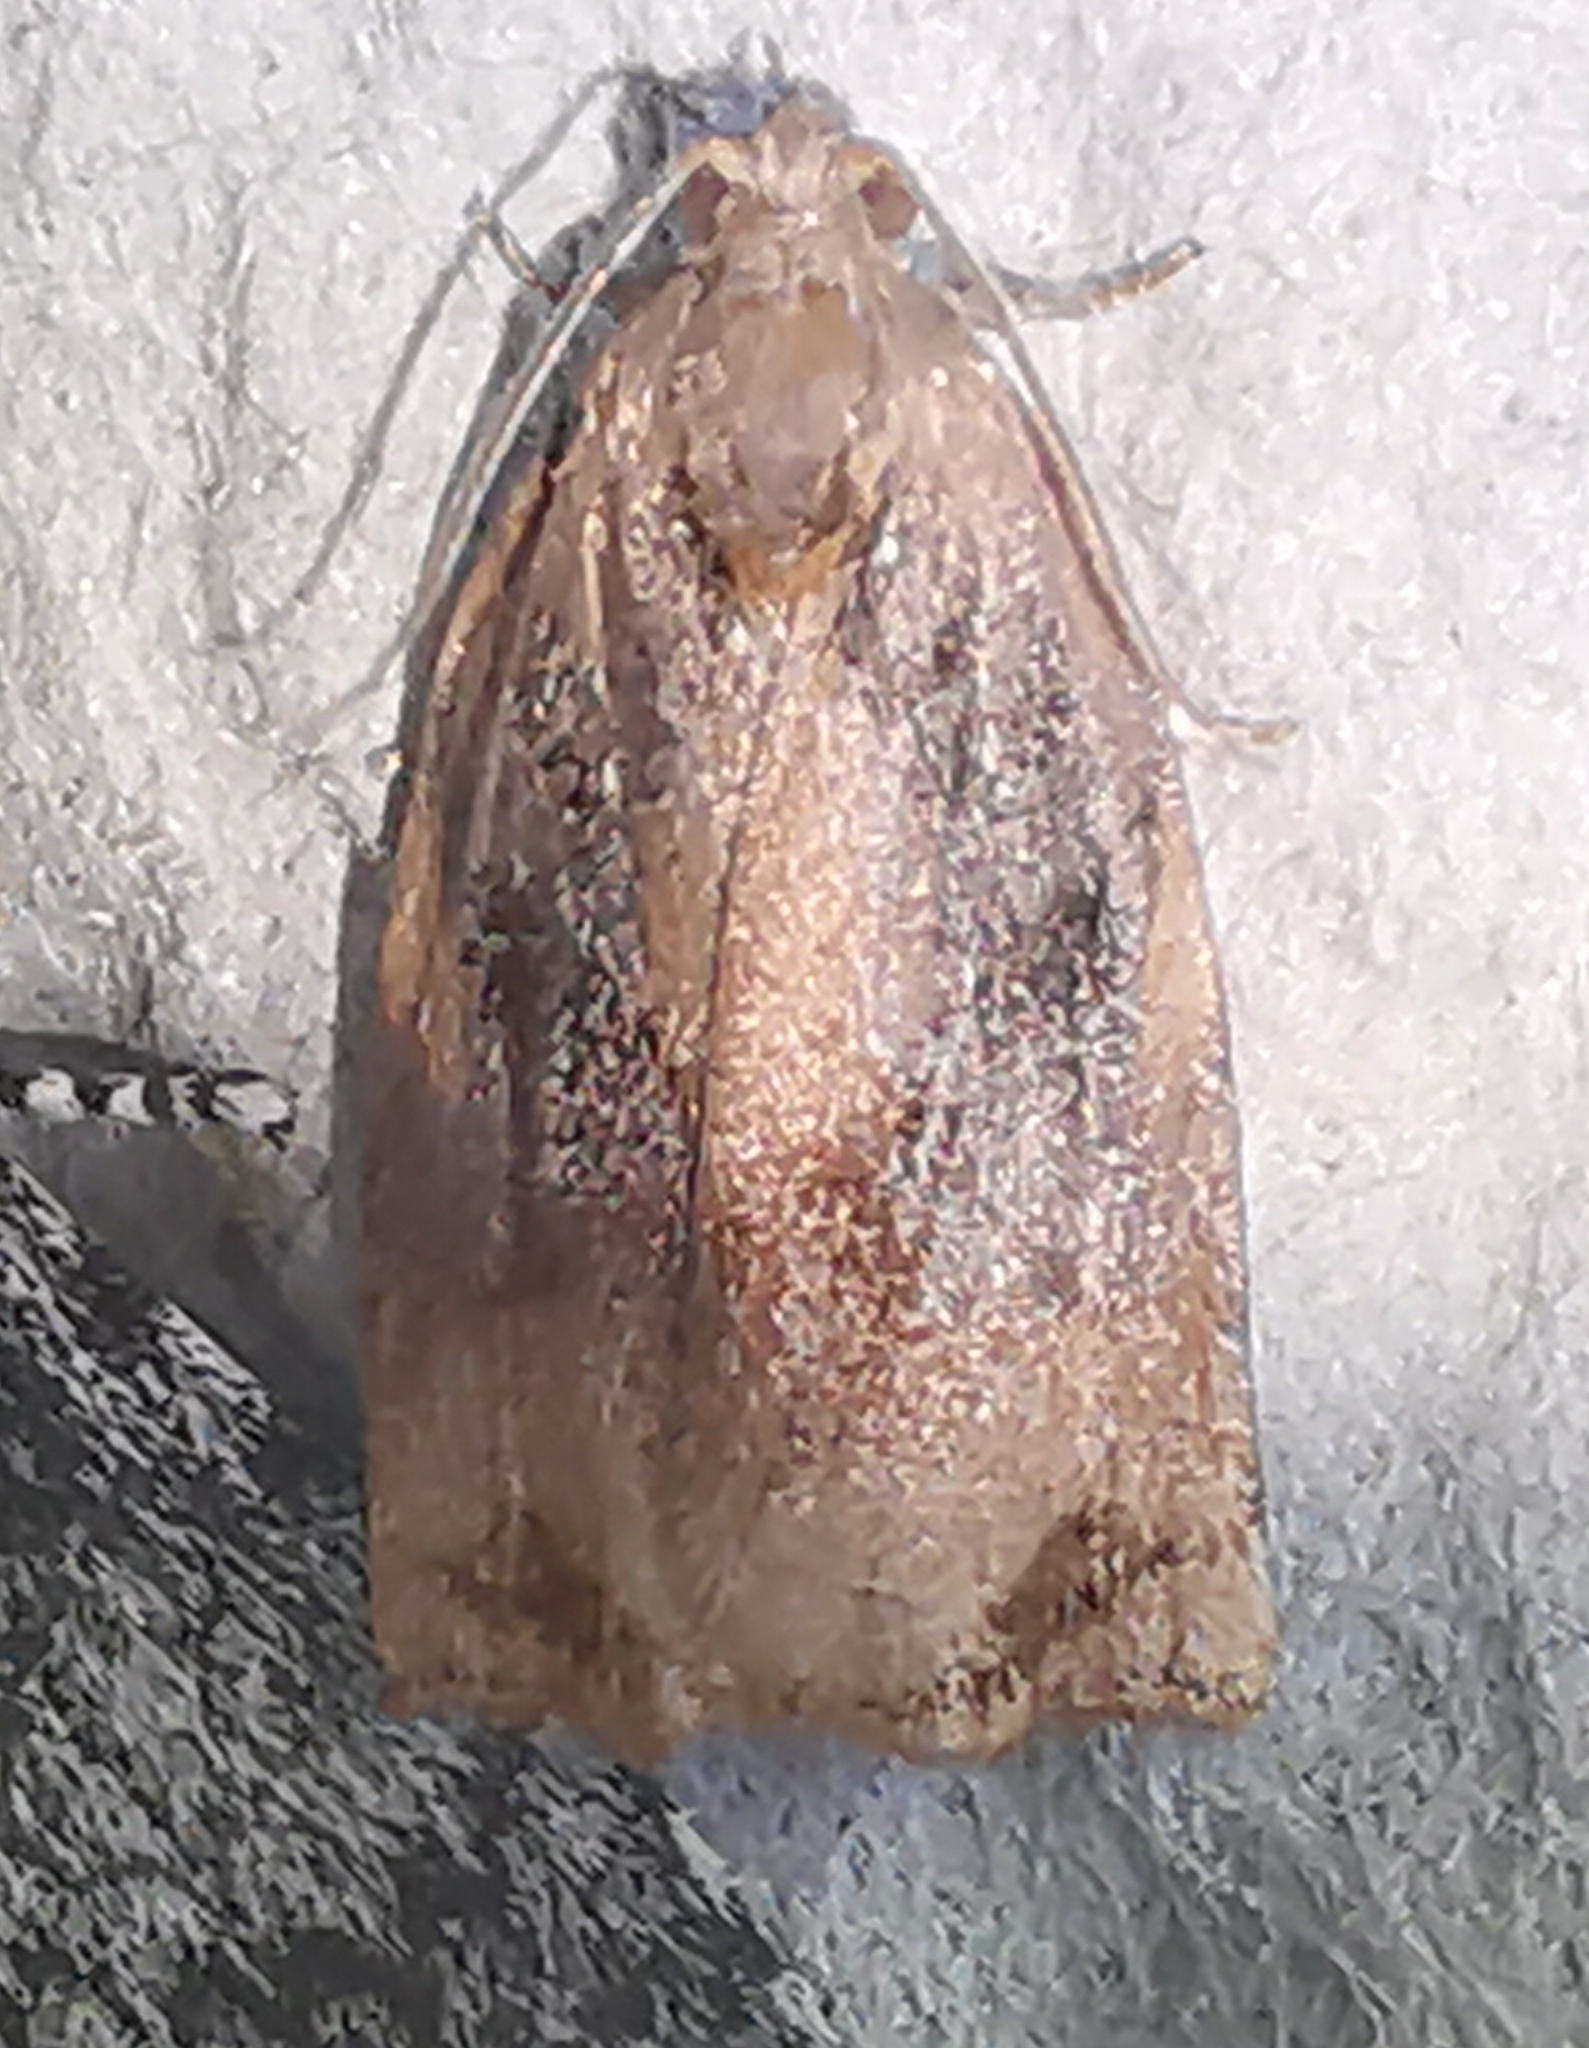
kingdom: Animalia
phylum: Arthropoda
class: Insecta
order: Lepidoptera
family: Tortricidae
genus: Archips
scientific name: Archips podana
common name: Large fruit-tree tortrix
